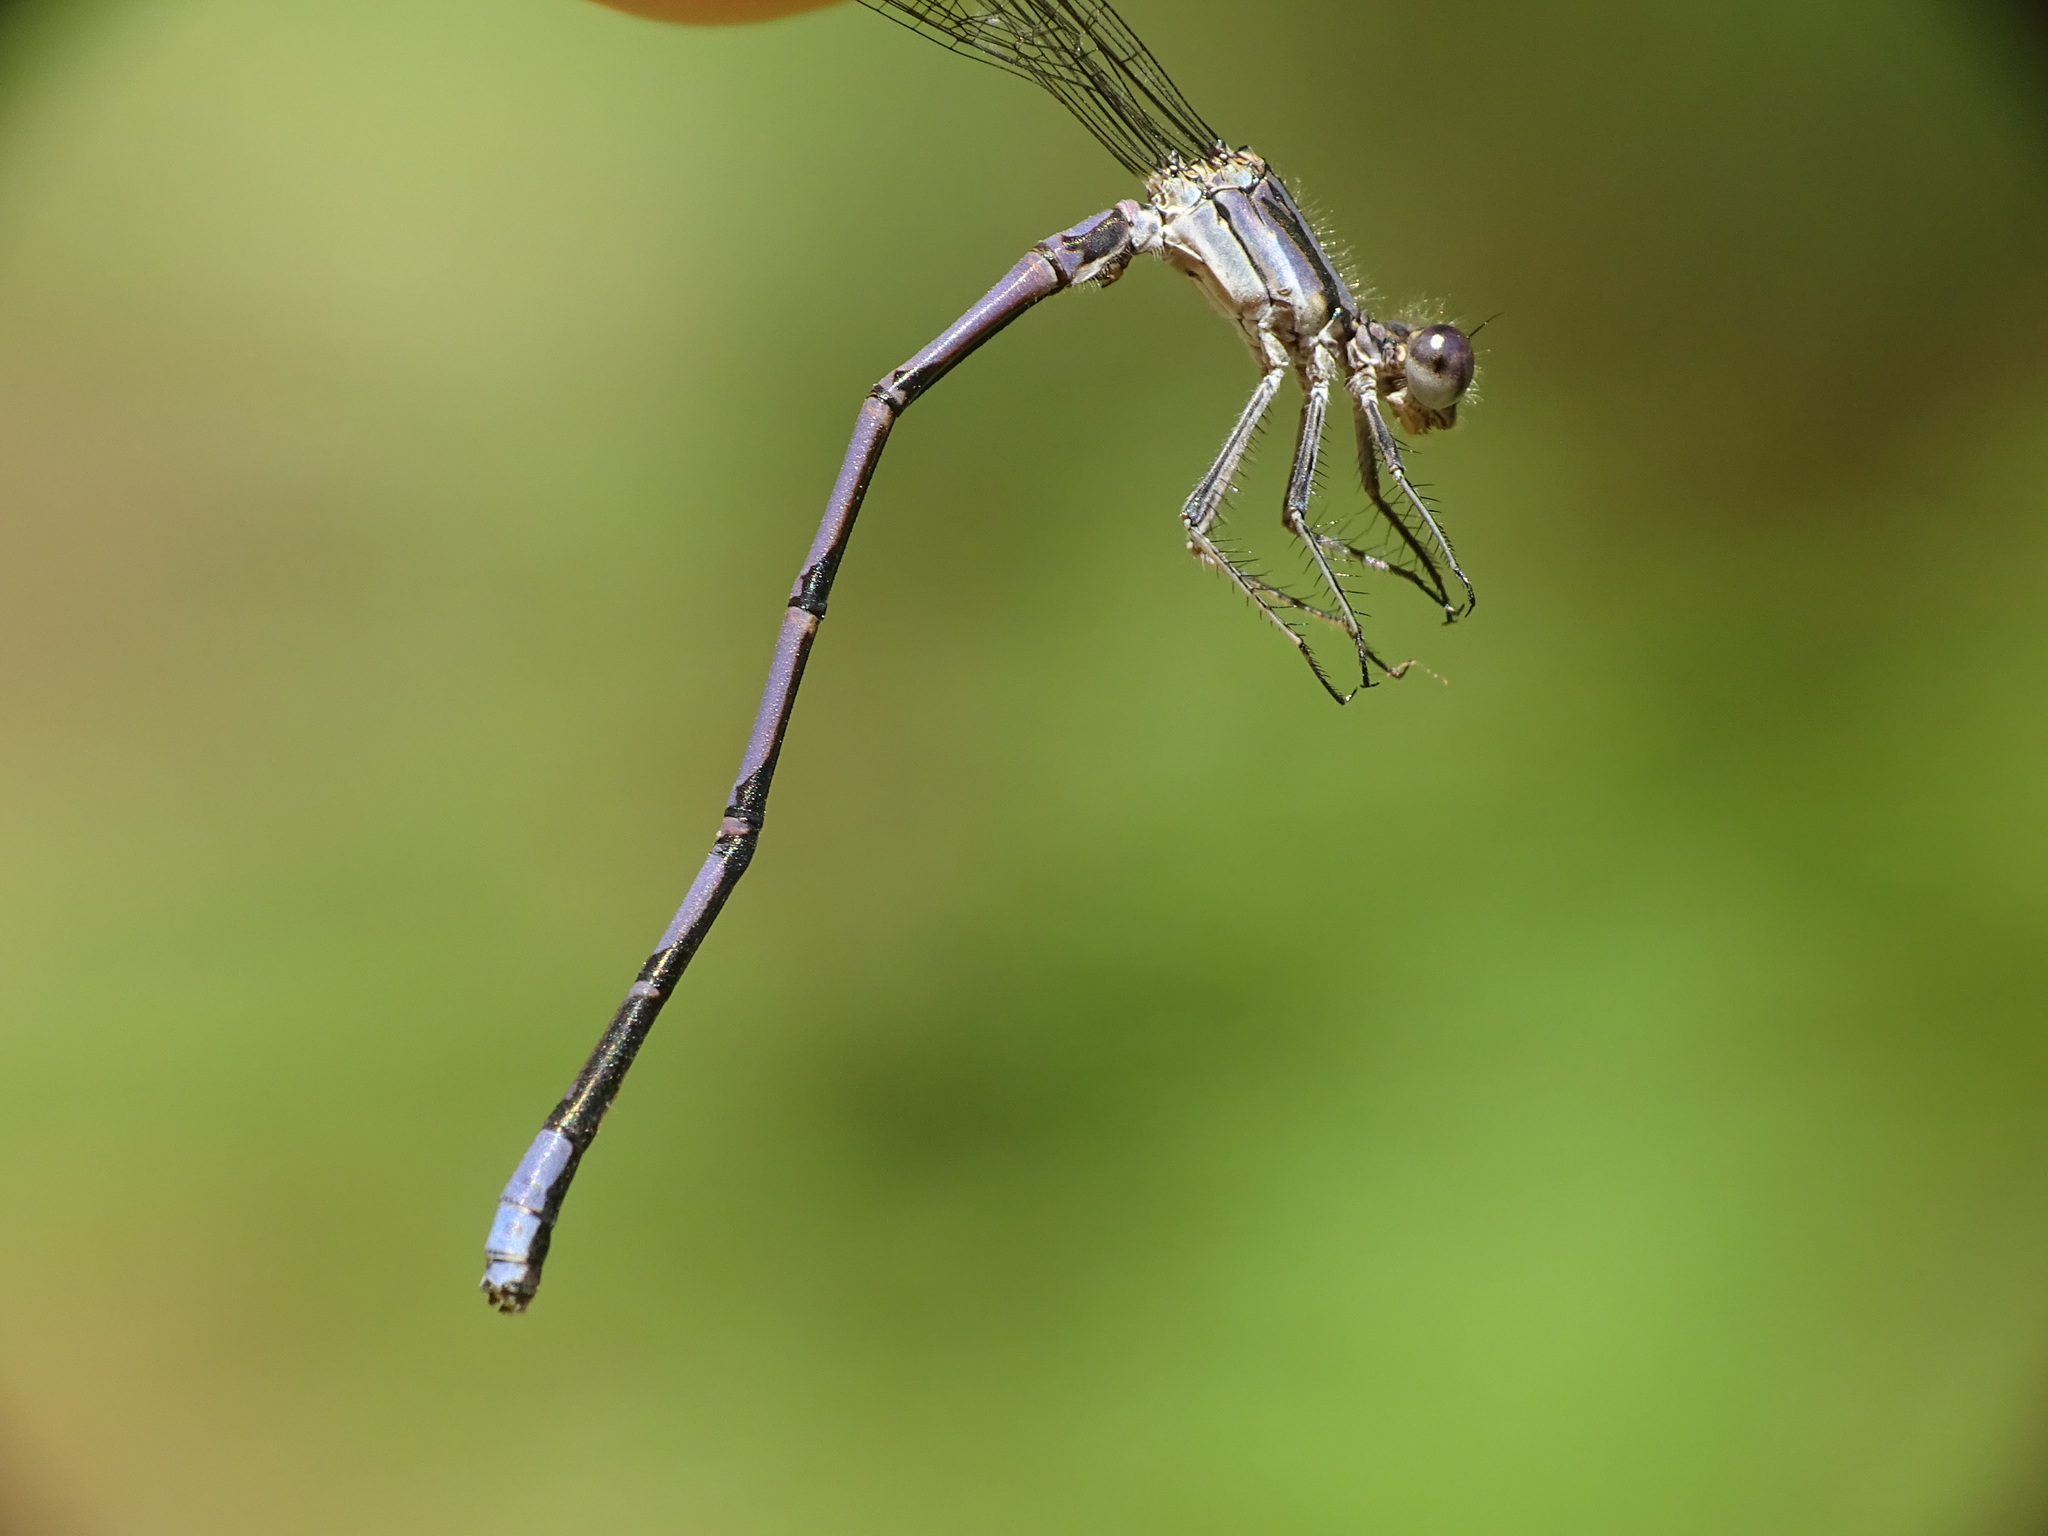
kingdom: Animalia
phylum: Arthropoda
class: Insecta
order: Odonata
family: Coenagrionidae
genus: Argia
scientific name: Argia fumipennis
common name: Variable dancer
